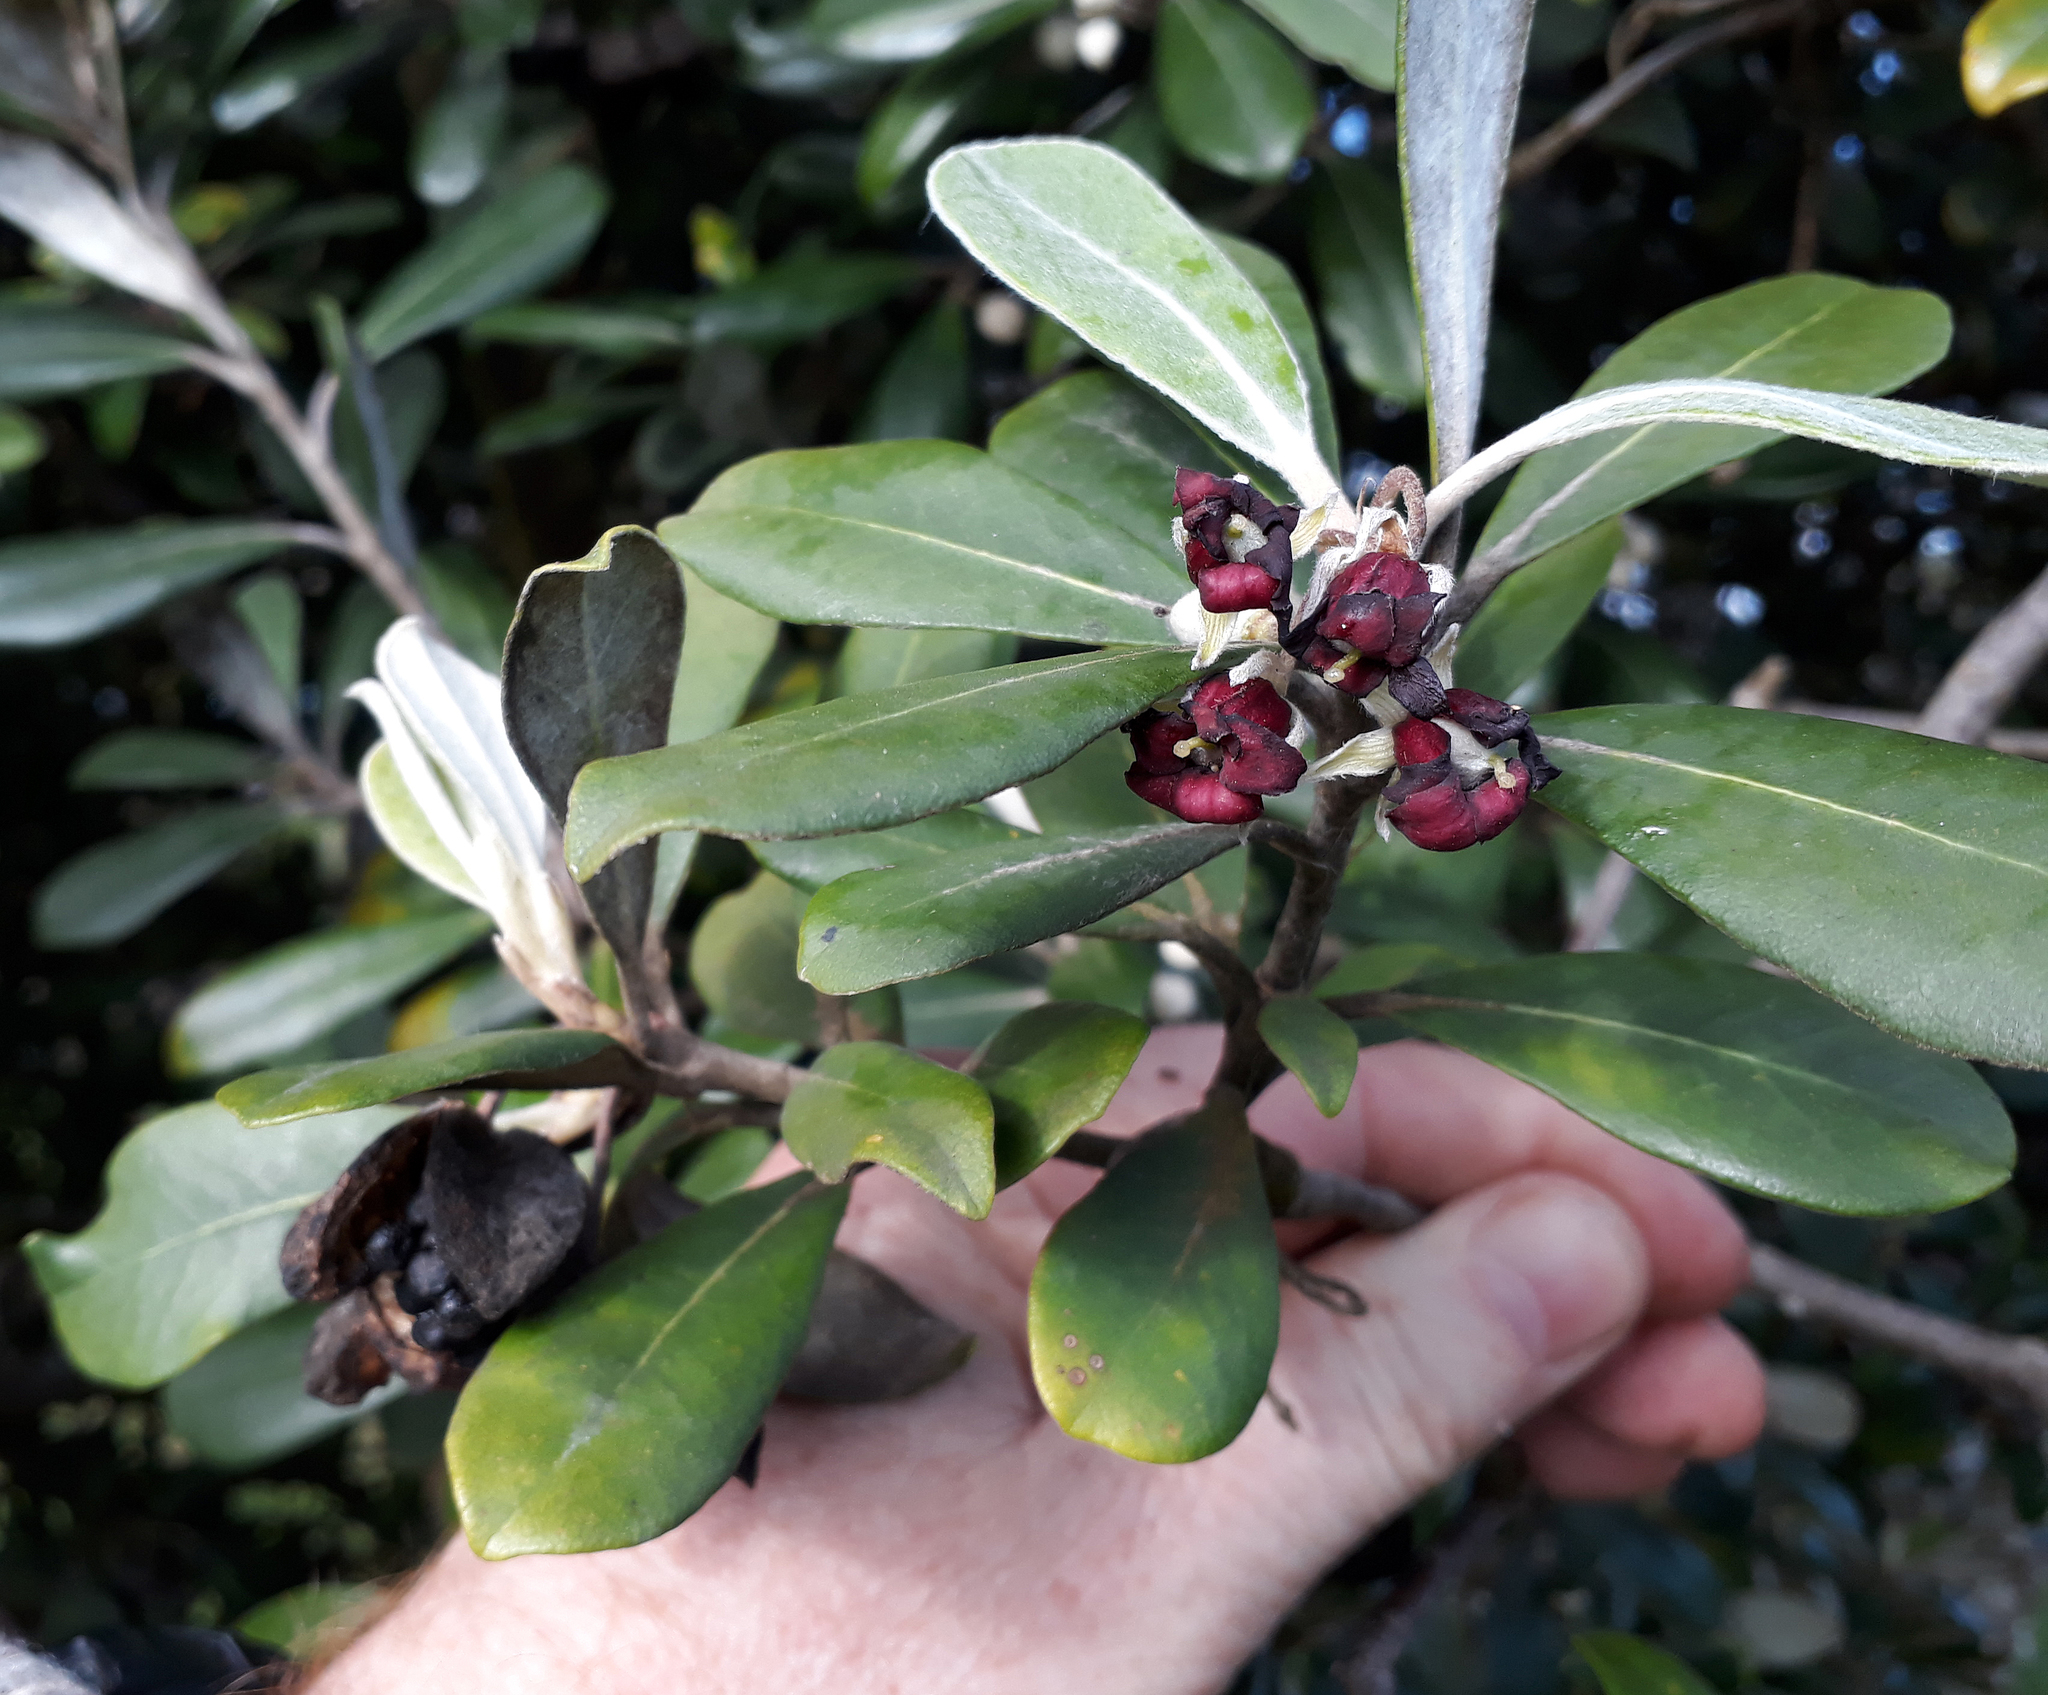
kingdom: Plantae
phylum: Tracheophyta
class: Magnoliopsida
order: Apiales
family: Pittosporaceae
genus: Pittosporum
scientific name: Pittosporum crassifolium
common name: Karo
